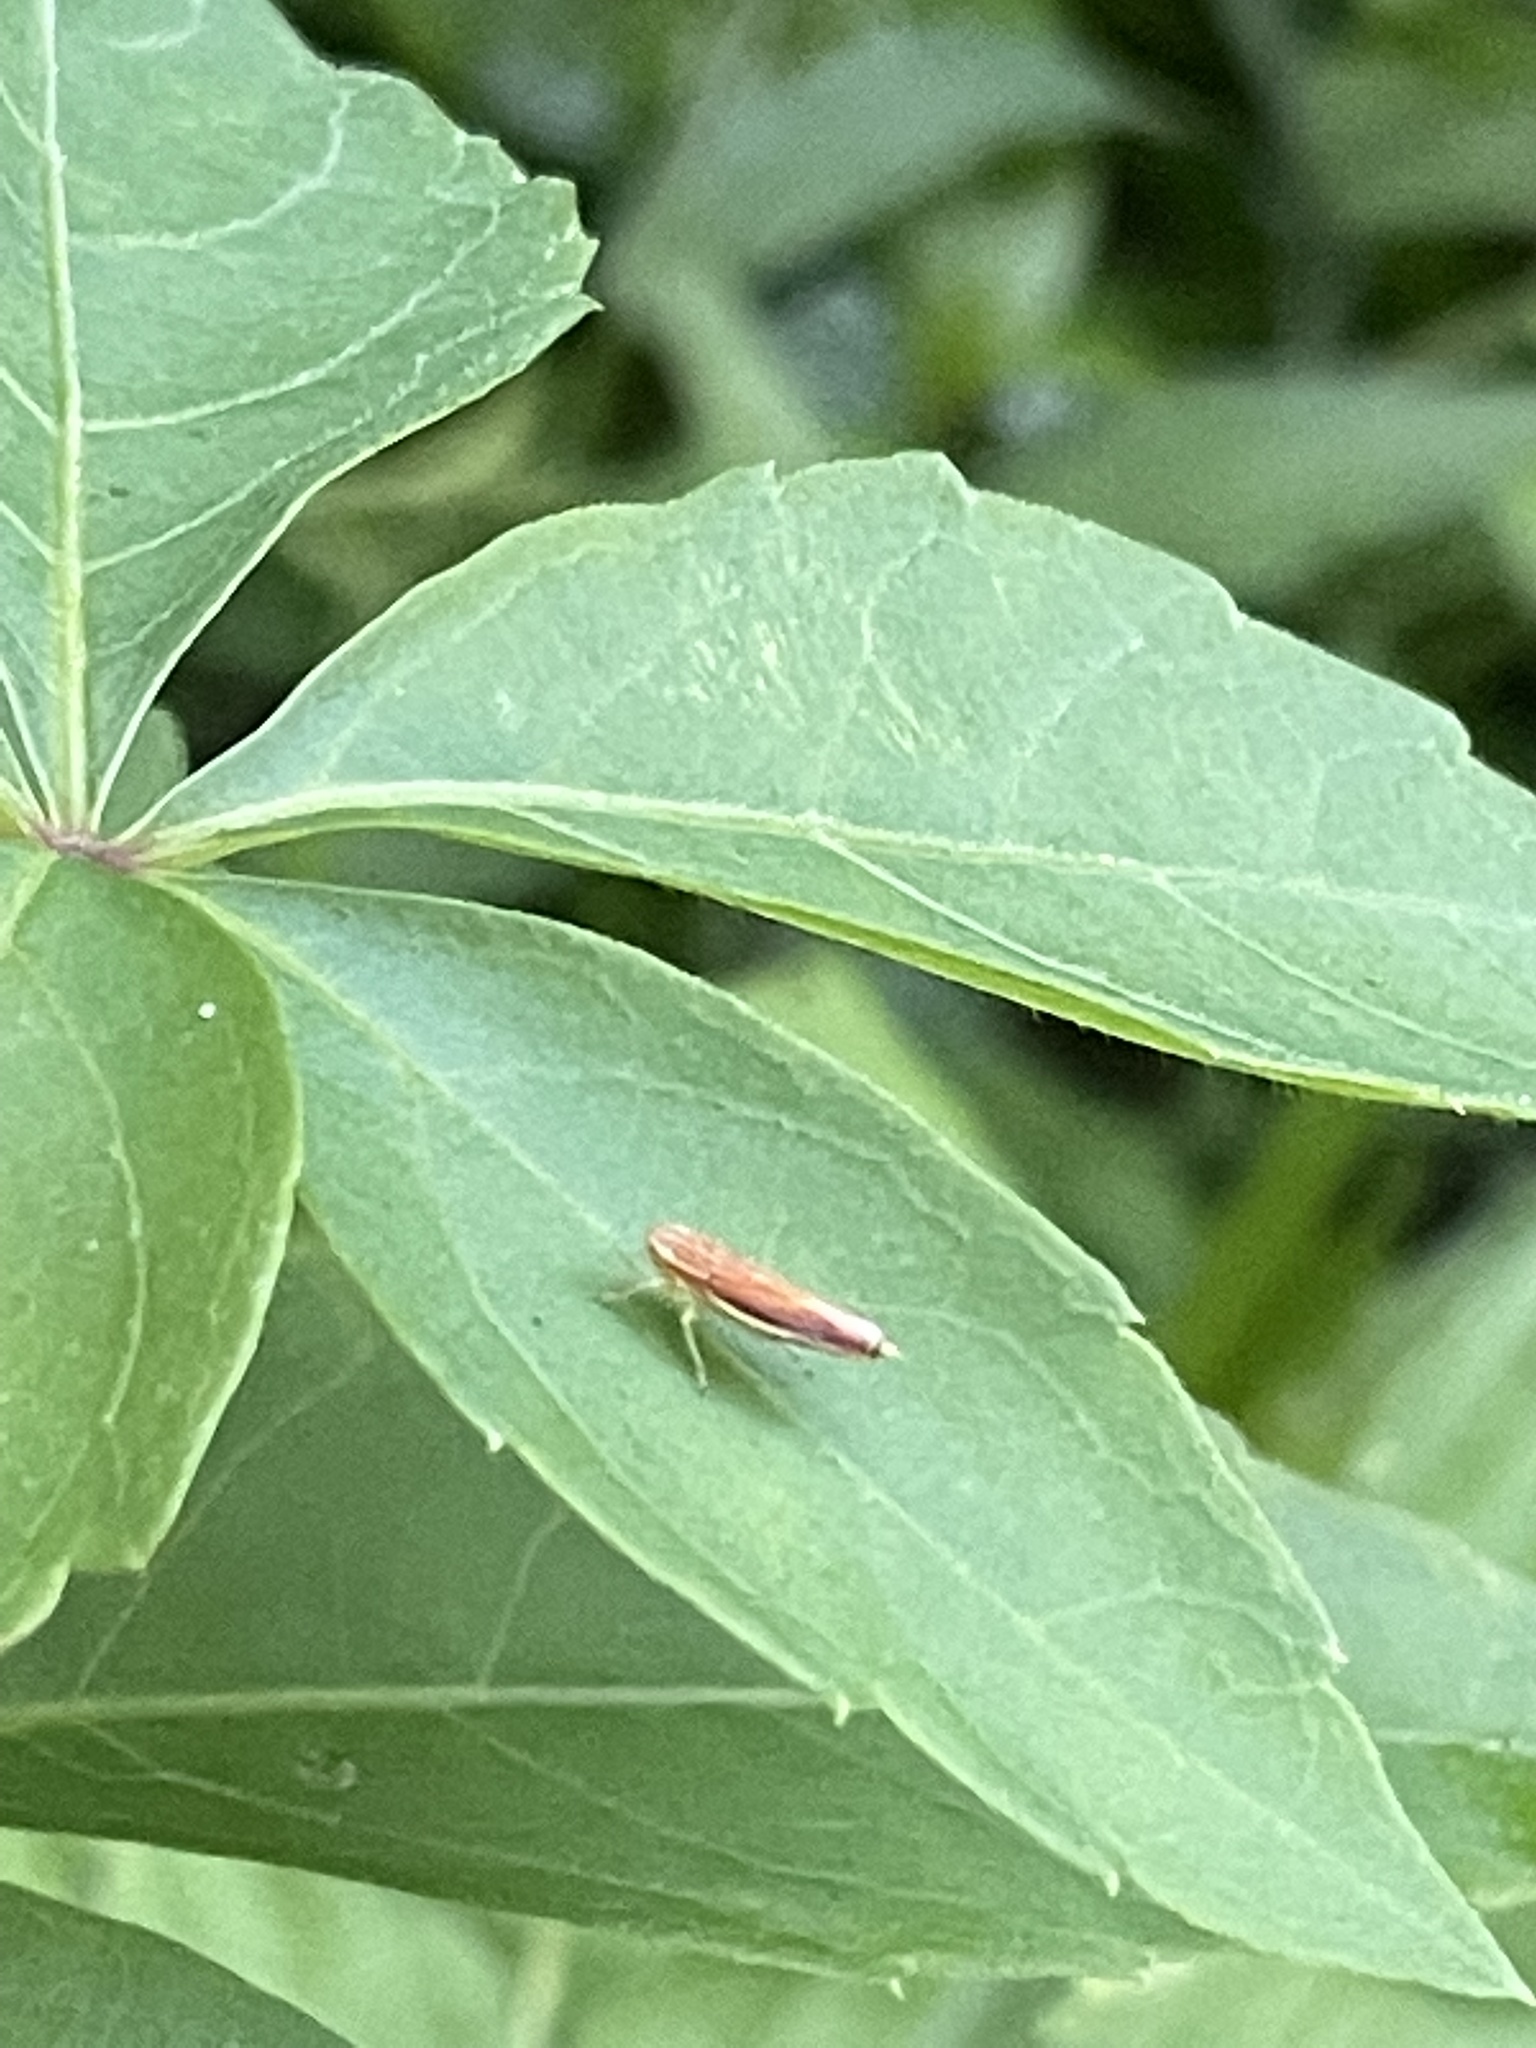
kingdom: Animalia
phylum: Arthropoda
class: Insecta
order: Hemiptera
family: Cicadellidae
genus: Sibovia
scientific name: Sibovia occatoria
